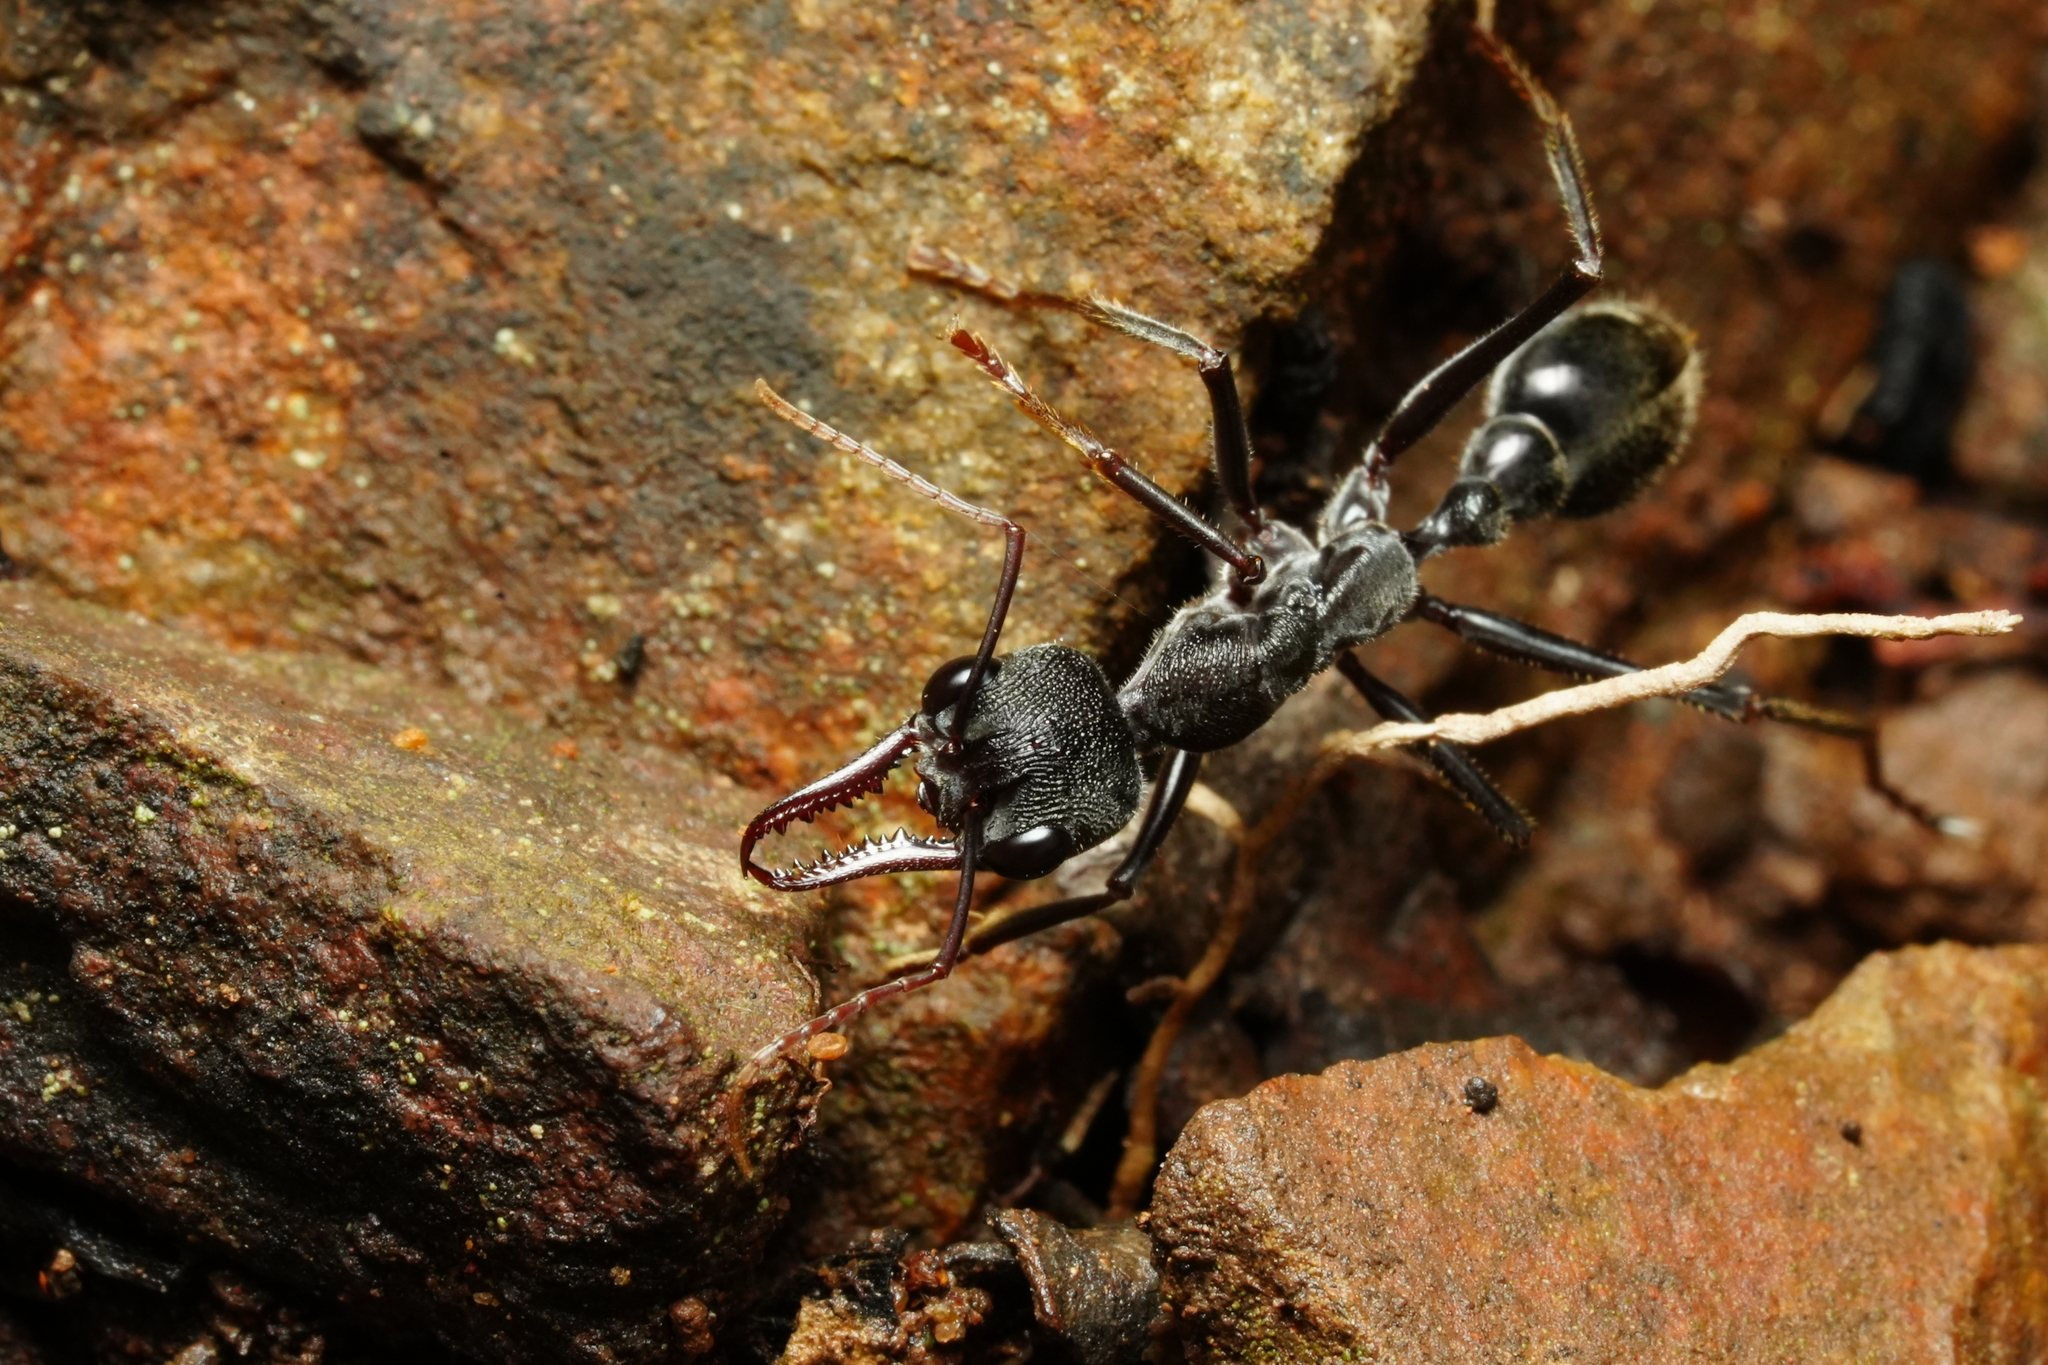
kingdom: Animalia
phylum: Arthropoda
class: Insecta
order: Hymenoptera
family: Formicidae
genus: Myrmecia
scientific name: Myrmecia pyriformis
